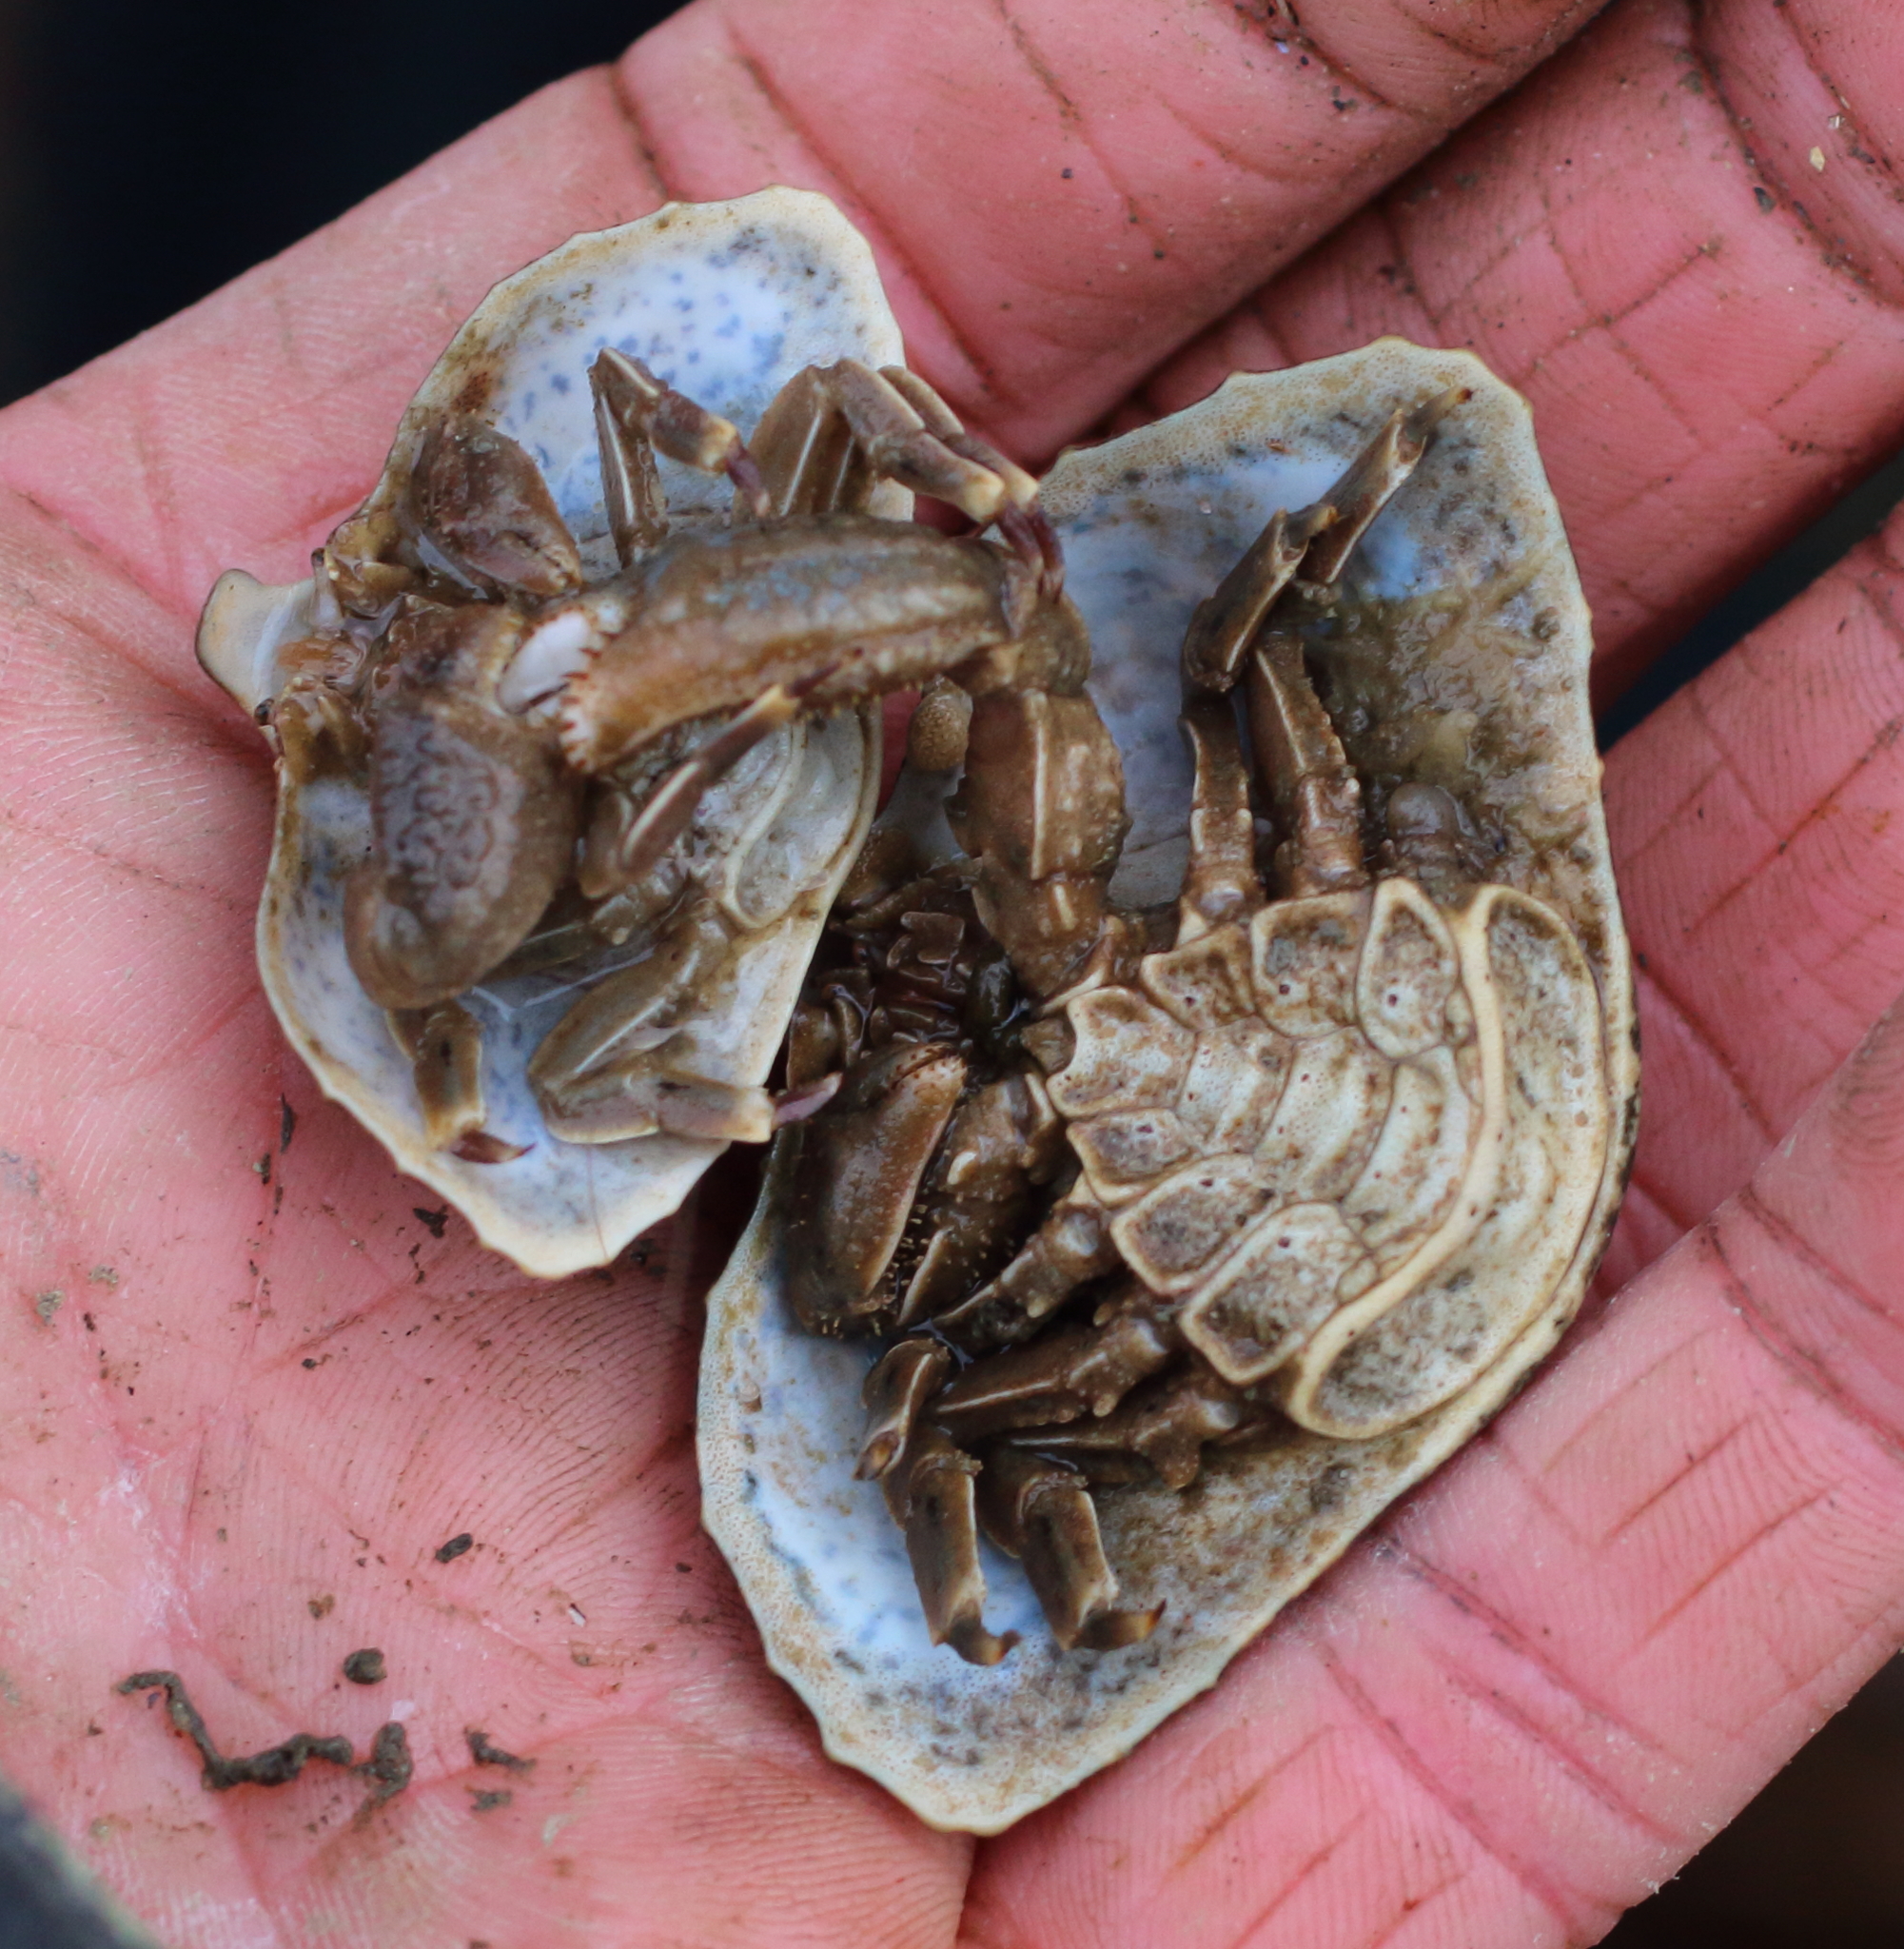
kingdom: Animalia
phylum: Arthropoda
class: Malacostraca
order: Decapoda
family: Lithodidae
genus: Cryptolithodes
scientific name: Cryptolithodes typicus
